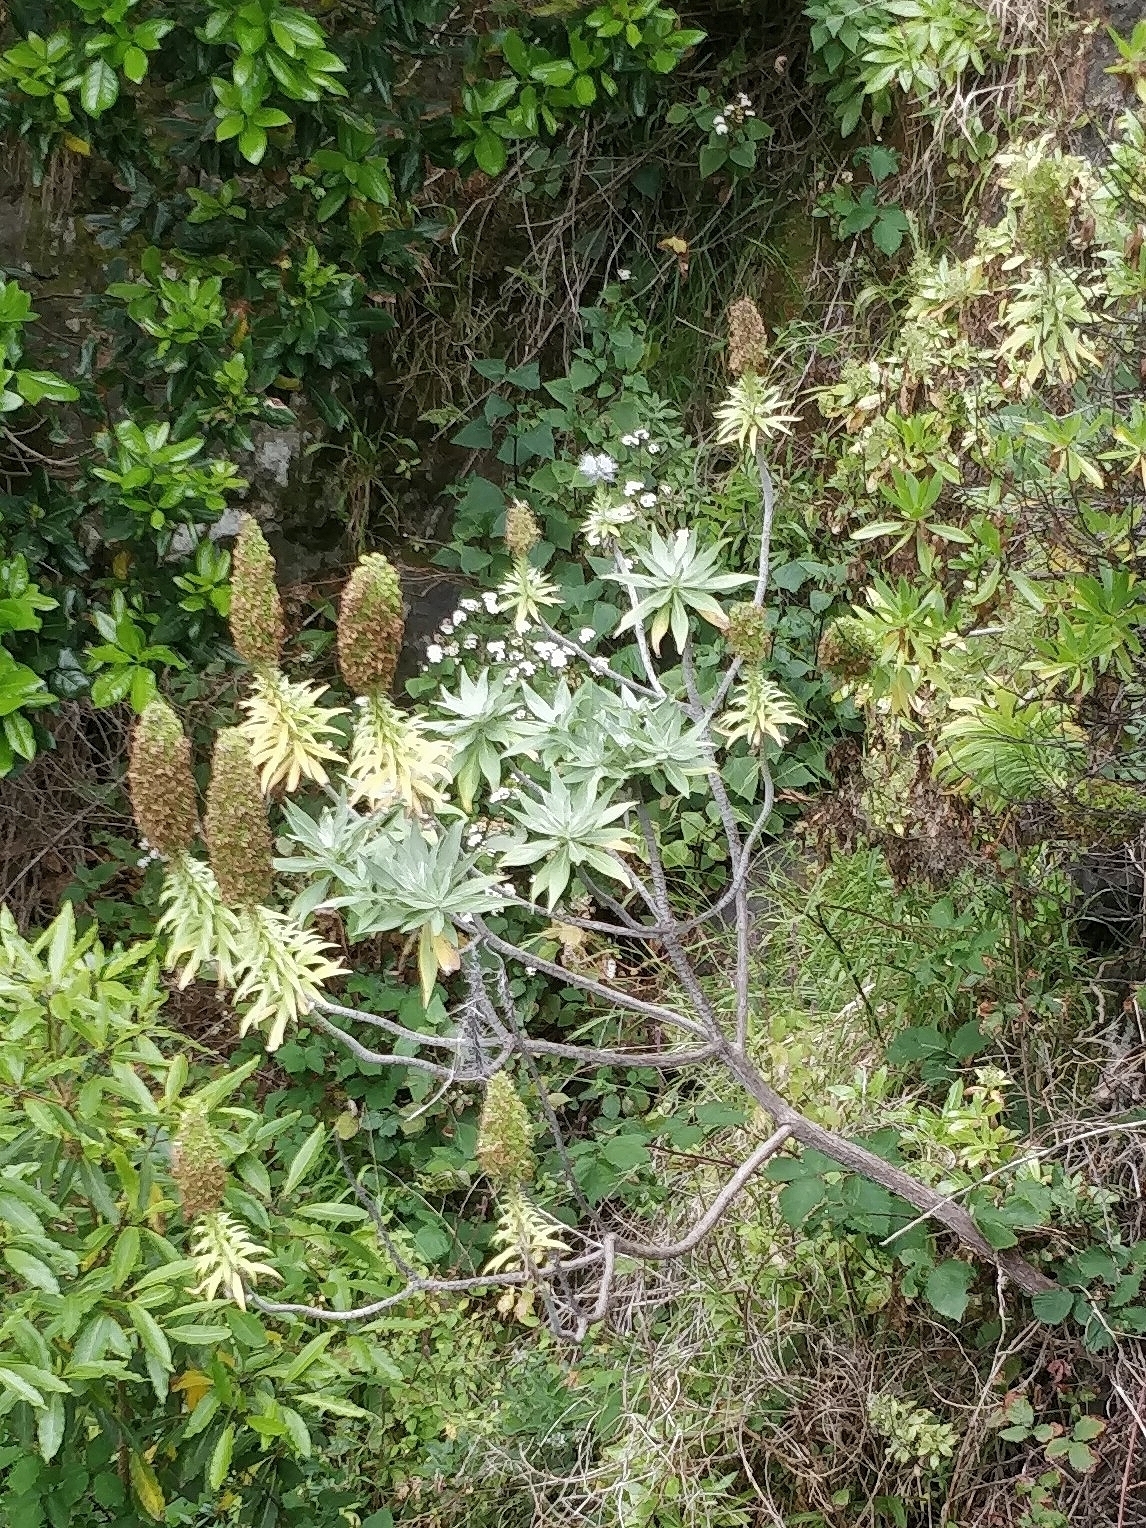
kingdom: Plantae
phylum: Tracheophyta
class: Magnoliopsida
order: Boraginales
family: Boraginaceae
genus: Echium
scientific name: Echium nervosum
